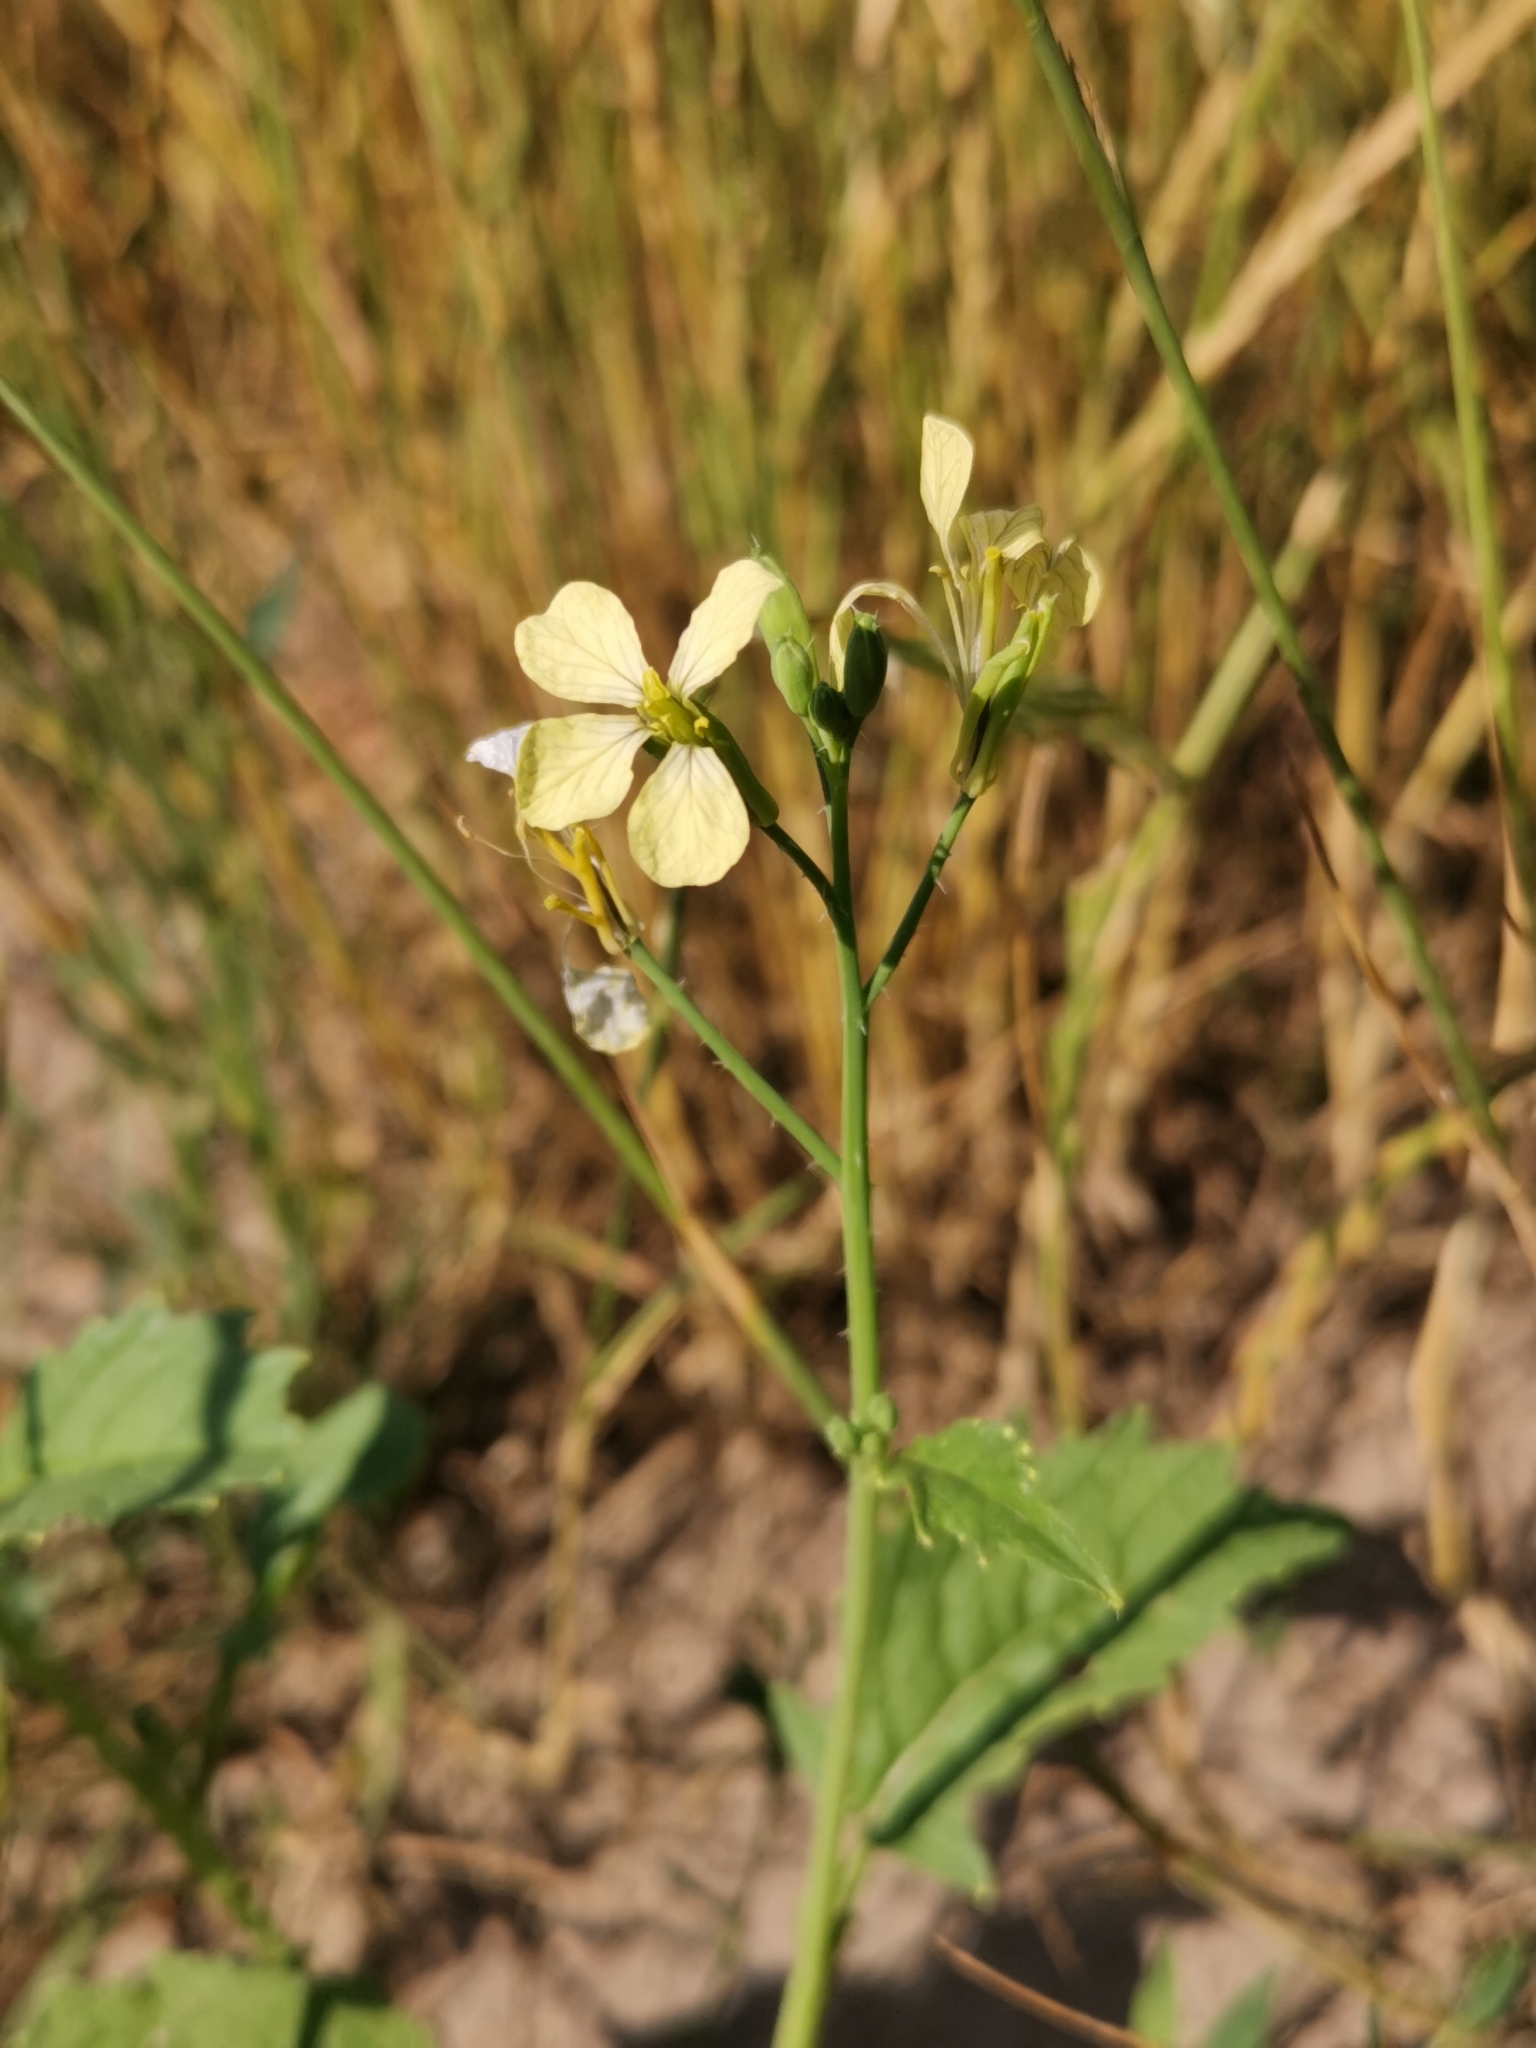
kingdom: Plantae
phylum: Tracheophyta
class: Magnoliopsida
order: Brassicales
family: Brassicaceae
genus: Raphanus
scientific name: Raphanus raphanistrum
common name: Wild radish
